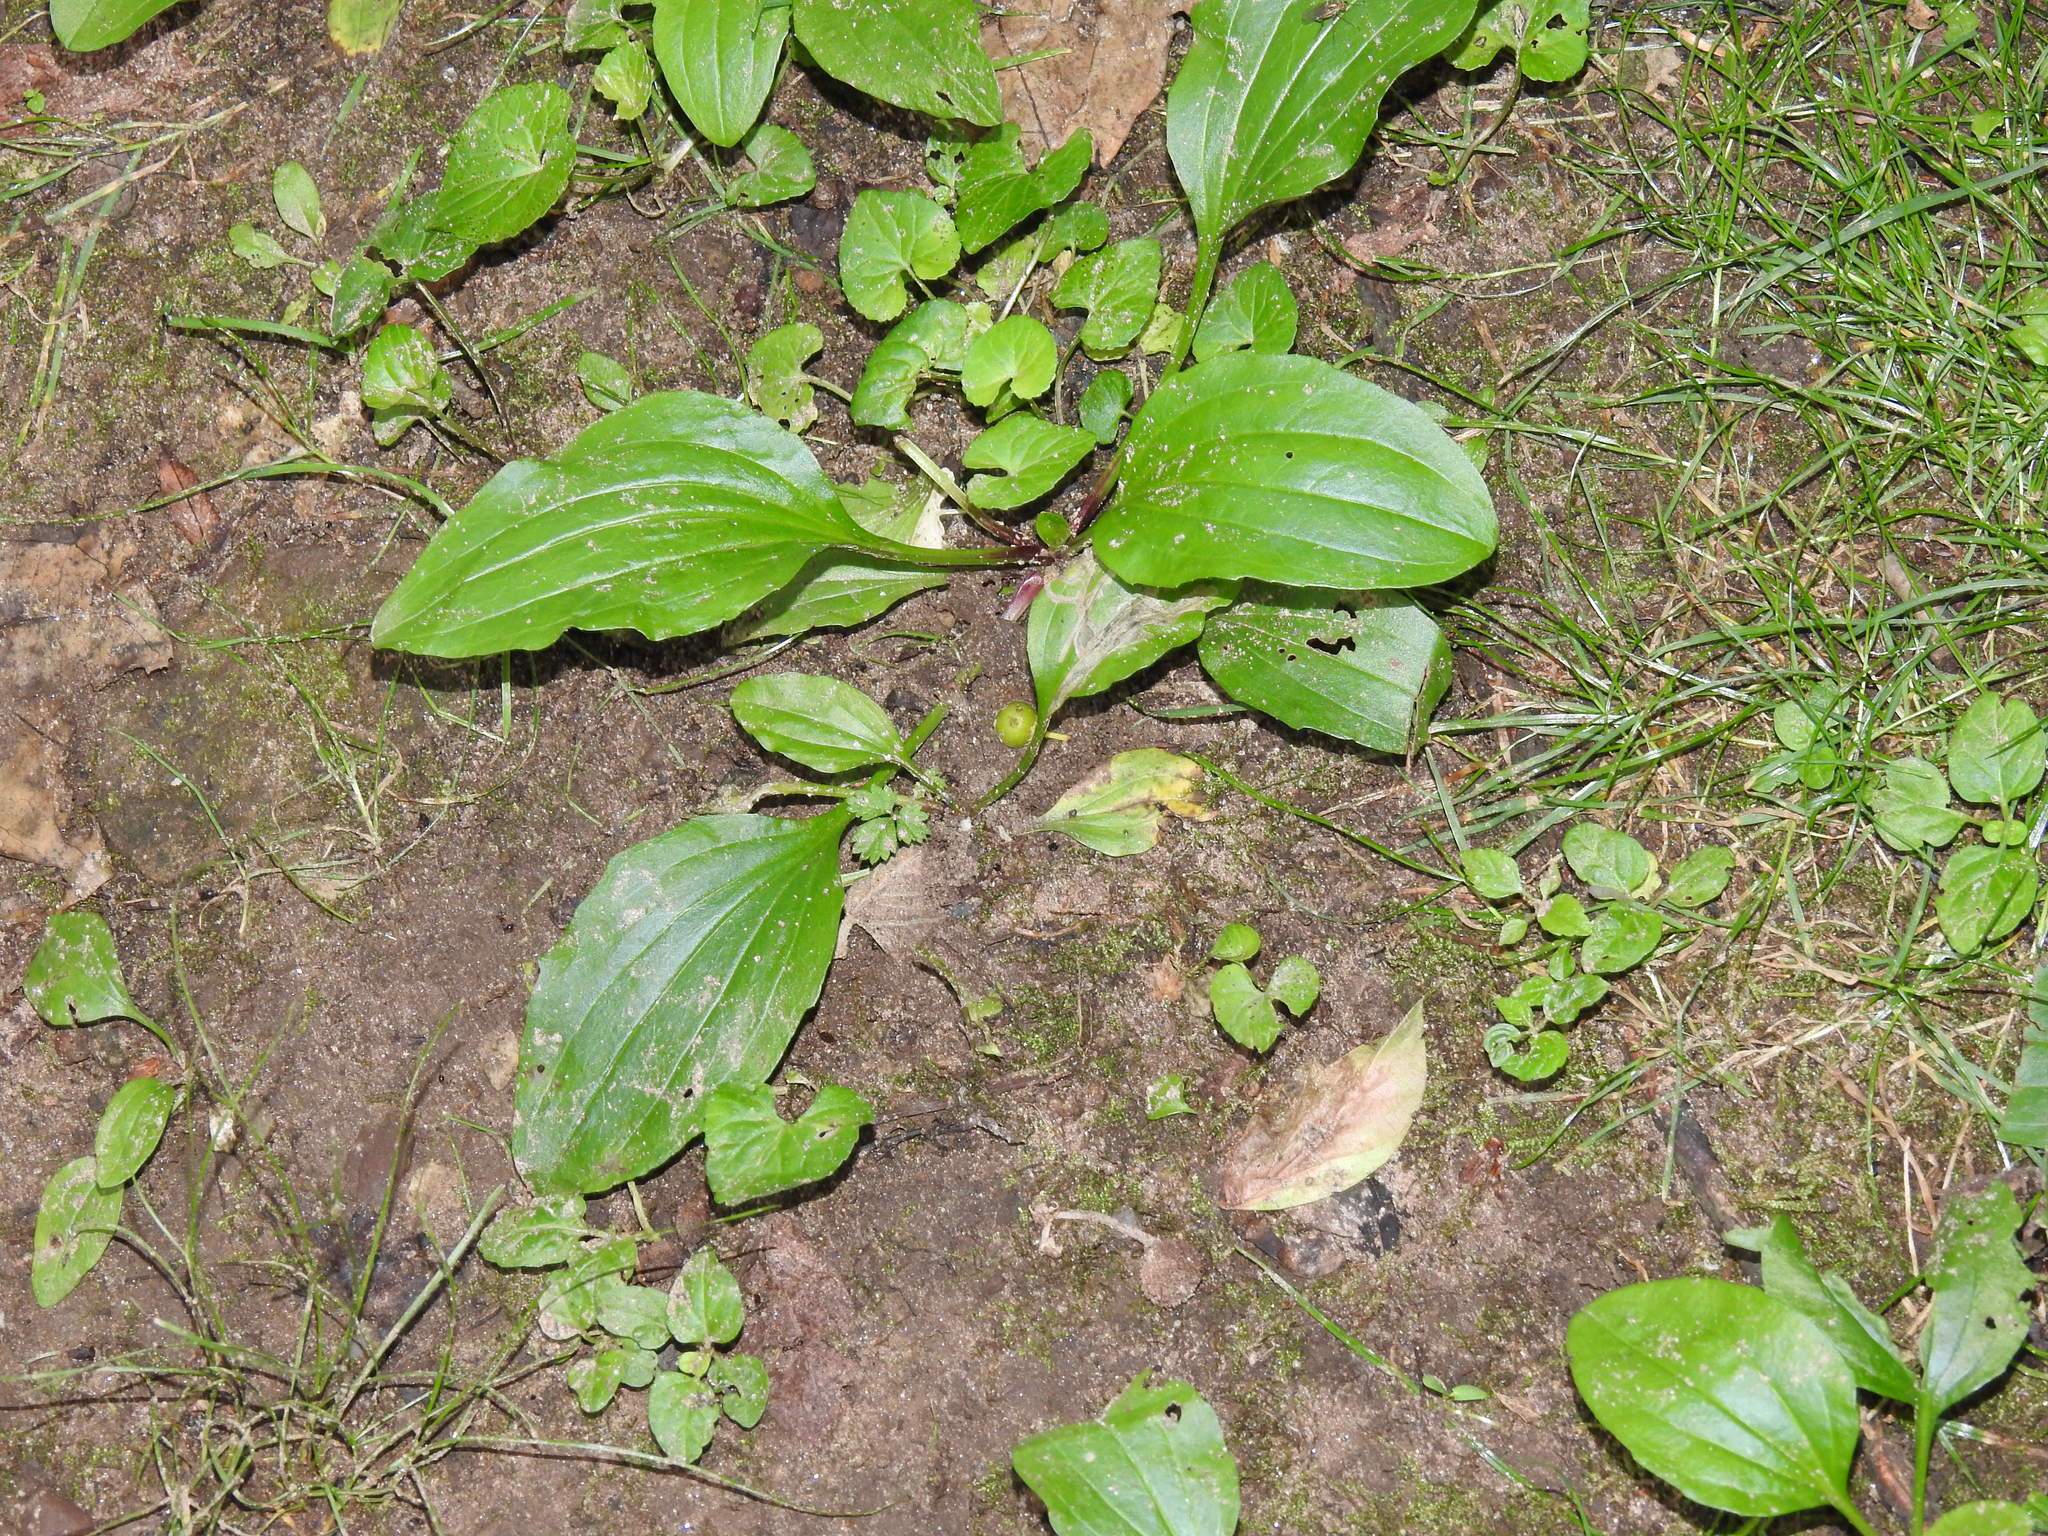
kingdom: Plantae
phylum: Tracheophyta
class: Magnoliopsida
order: Lamiales
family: Plantaginaceae
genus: Plantago
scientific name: Plantago rugelii
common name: American plantain
